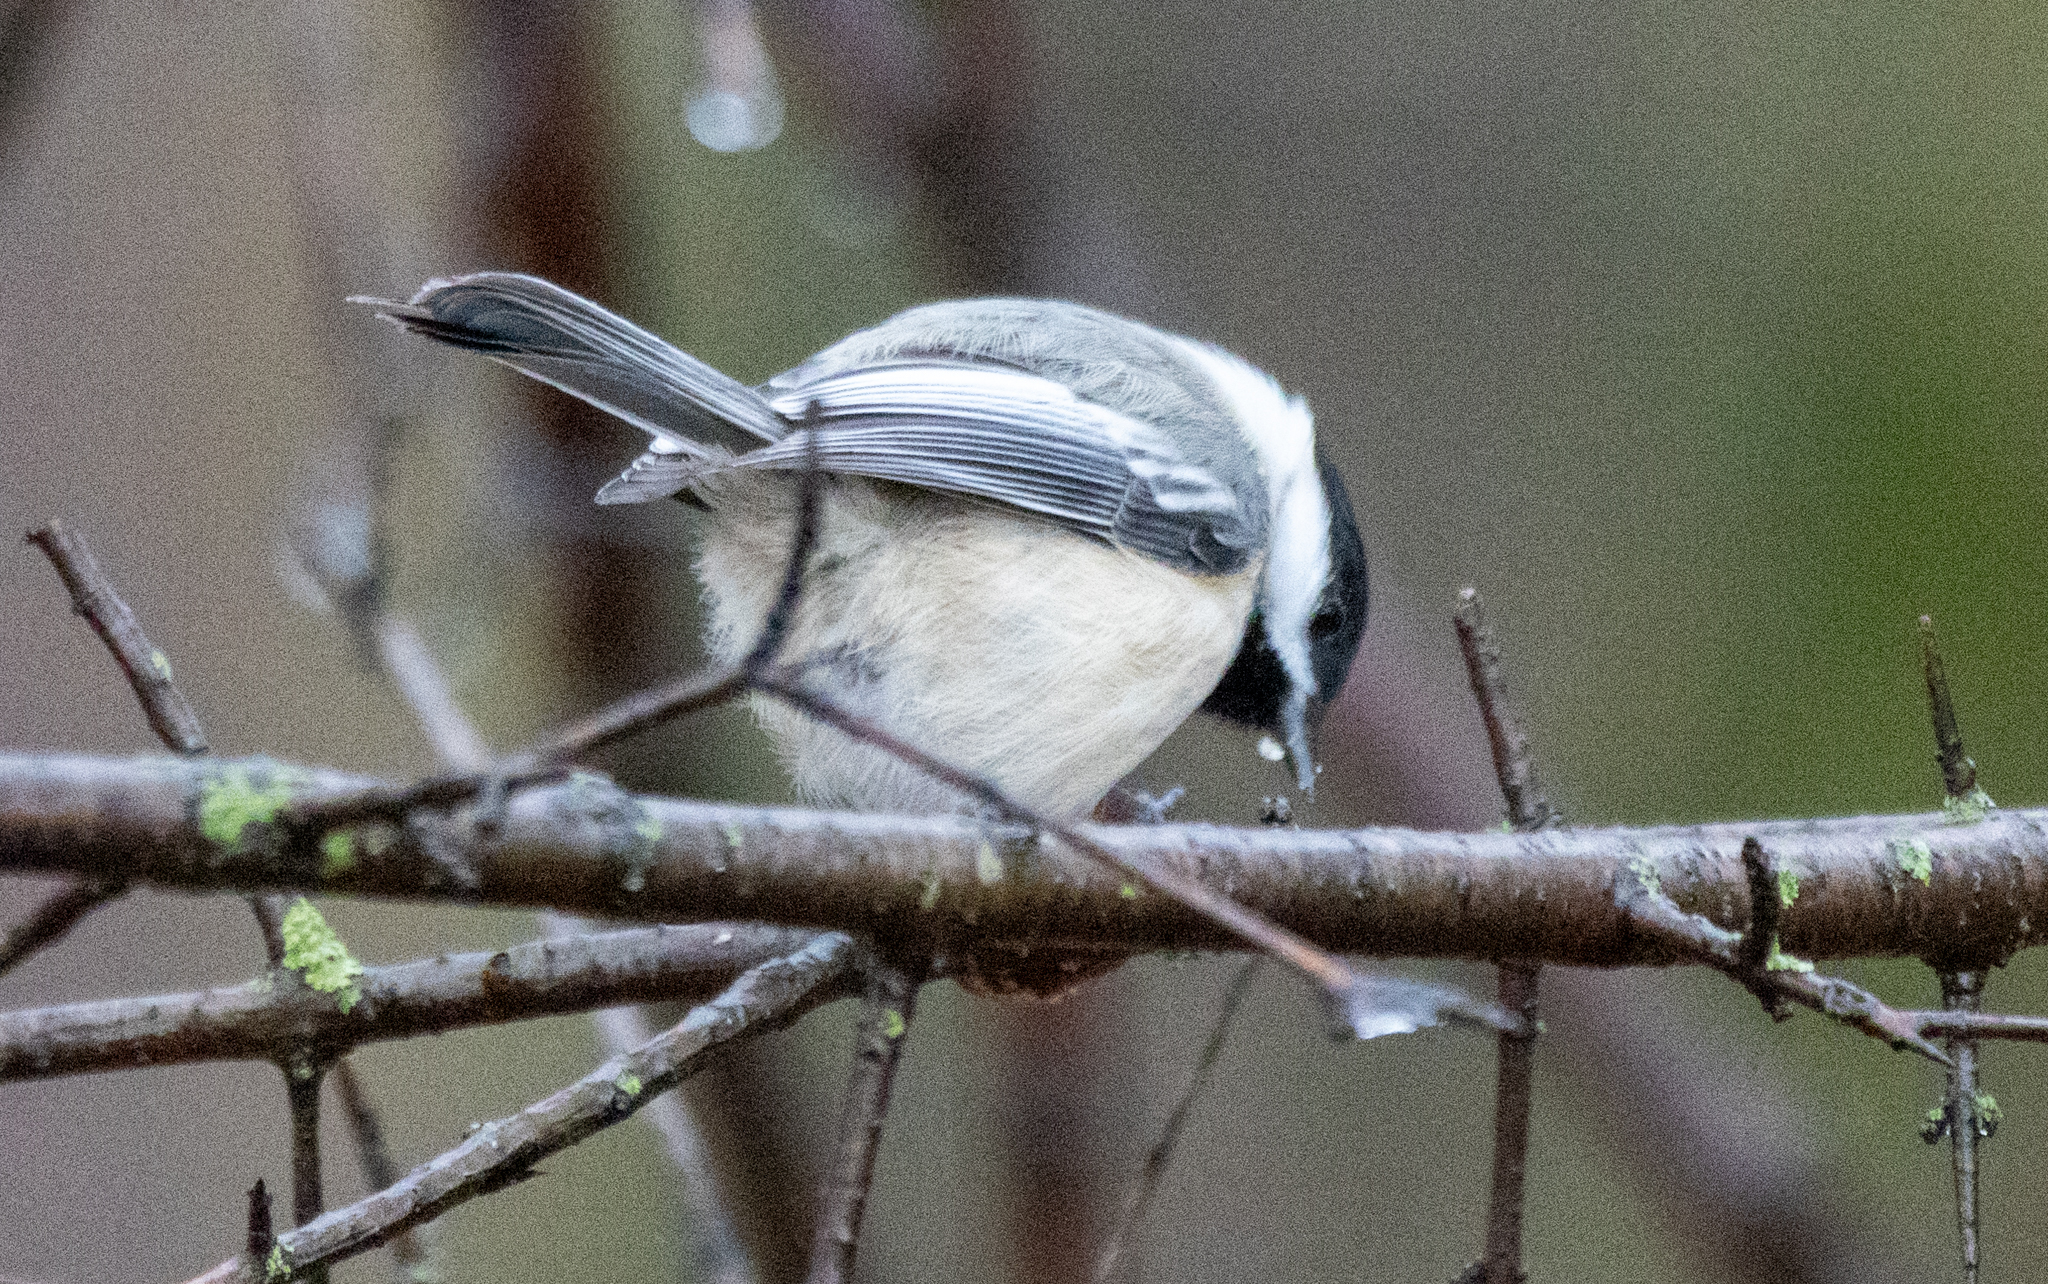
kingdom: Animalia
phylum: Chordata
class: Aves
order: Passeriformes
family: Paridae
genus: Poecile
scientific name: Poecile atricapillus
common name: Black-capped chickadee
